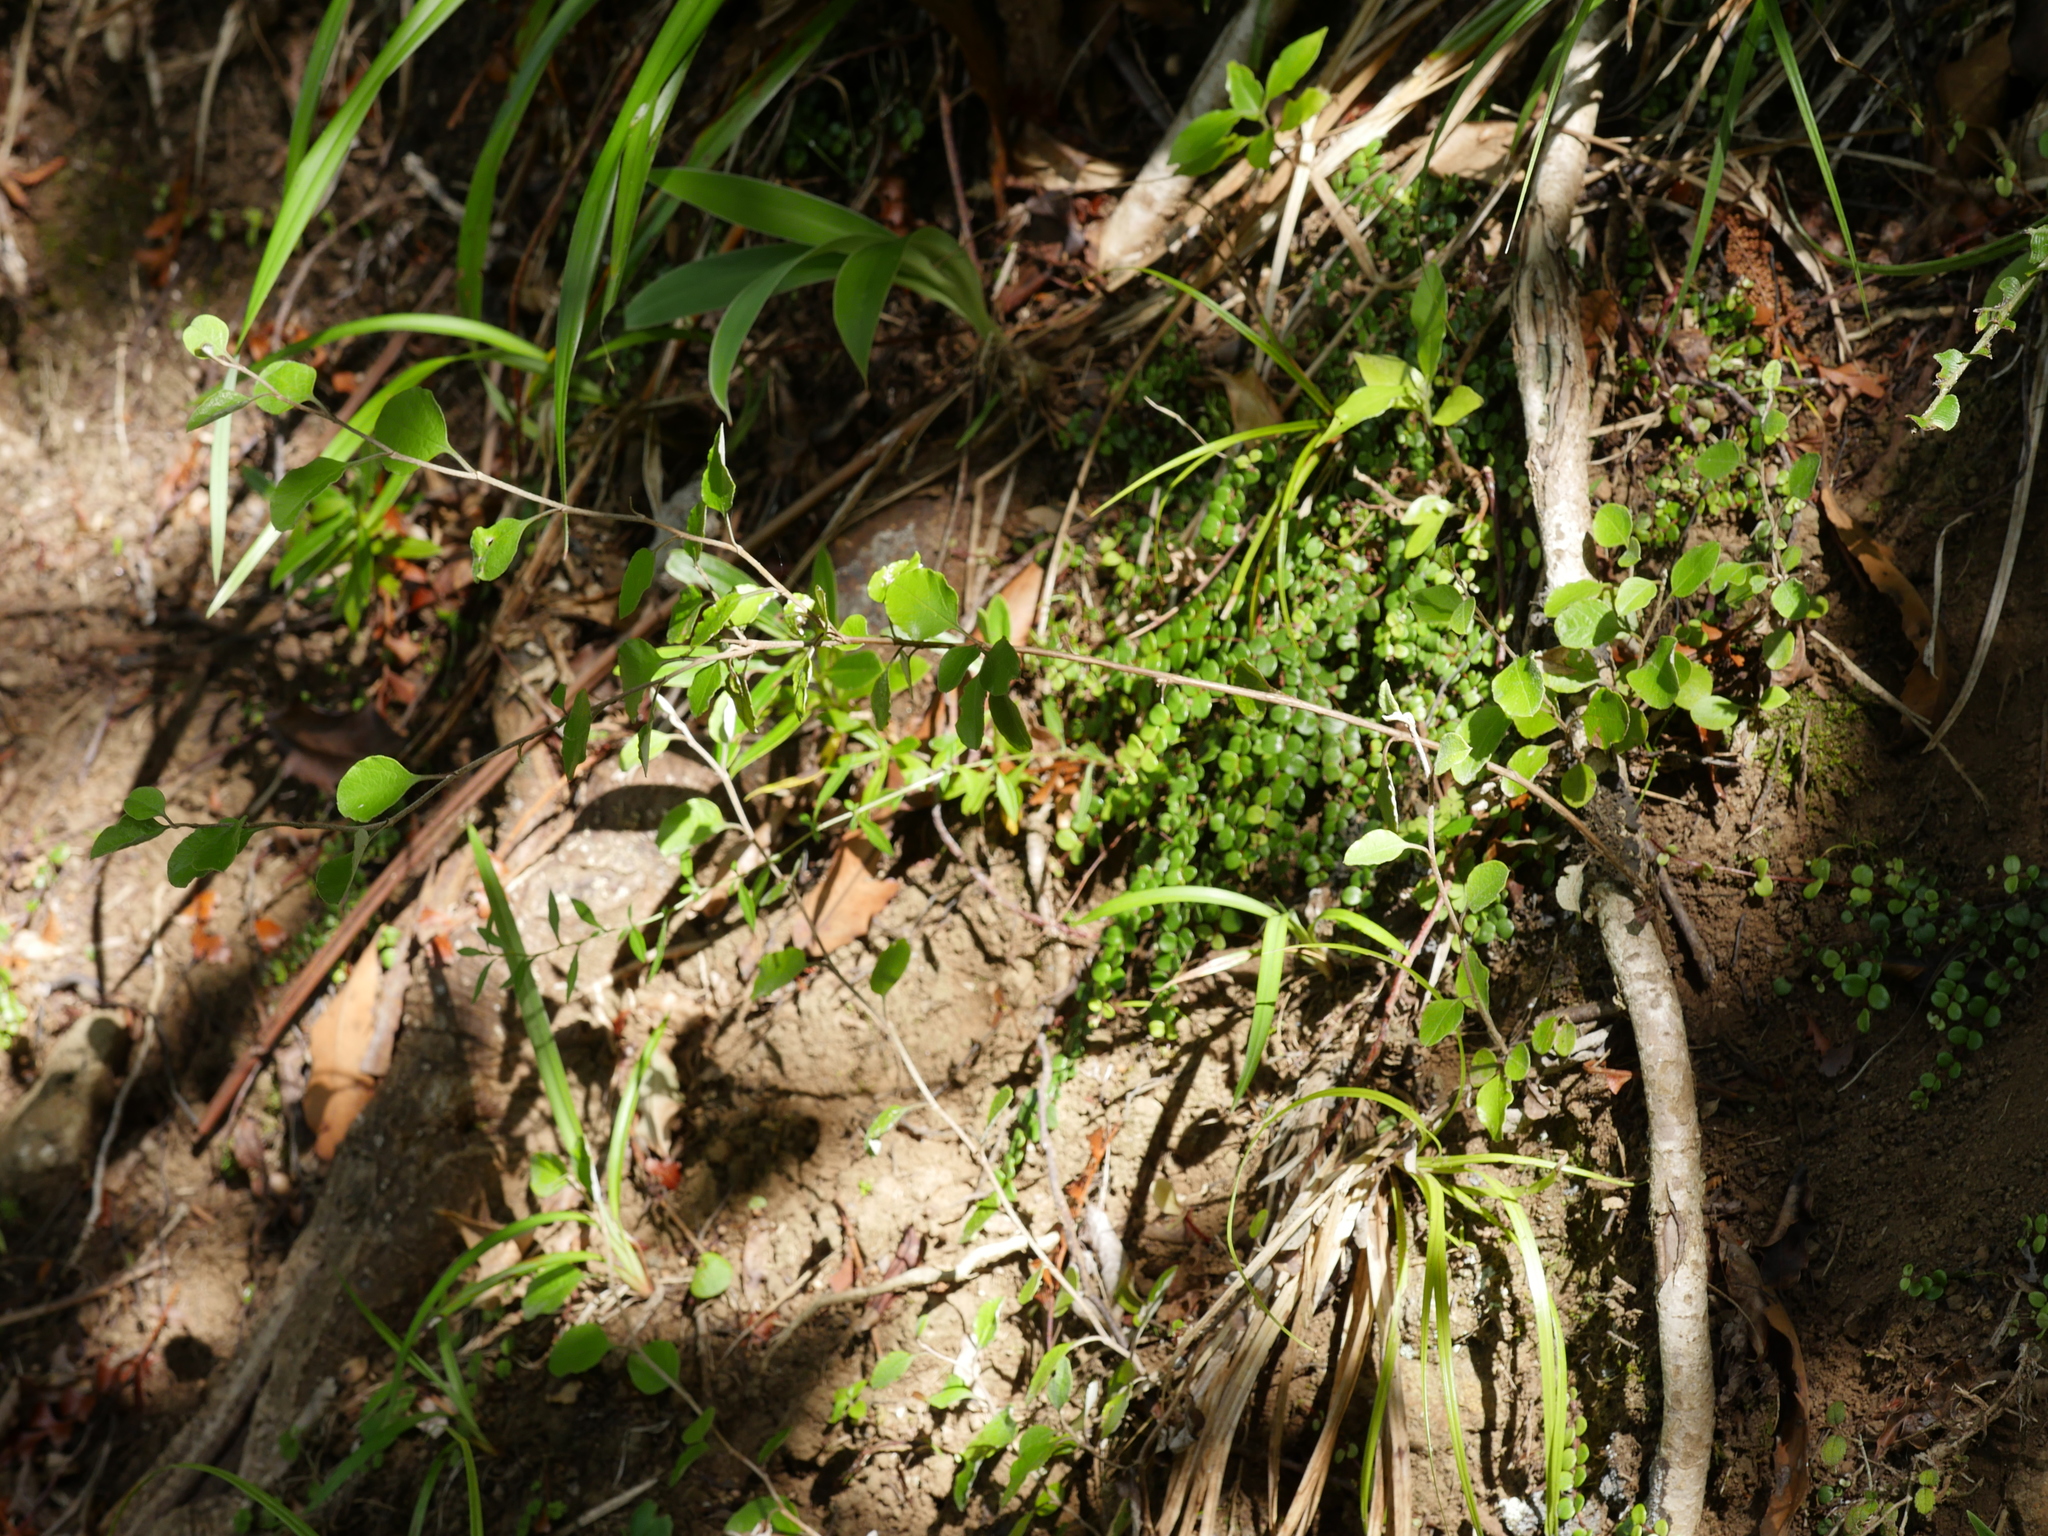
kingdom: Plantae
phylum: Tracheophyta
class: Magnoliopsida
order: Asterales
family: Asteraceae
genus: Ozothamnus
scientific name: Ozothamnus glomeratus
